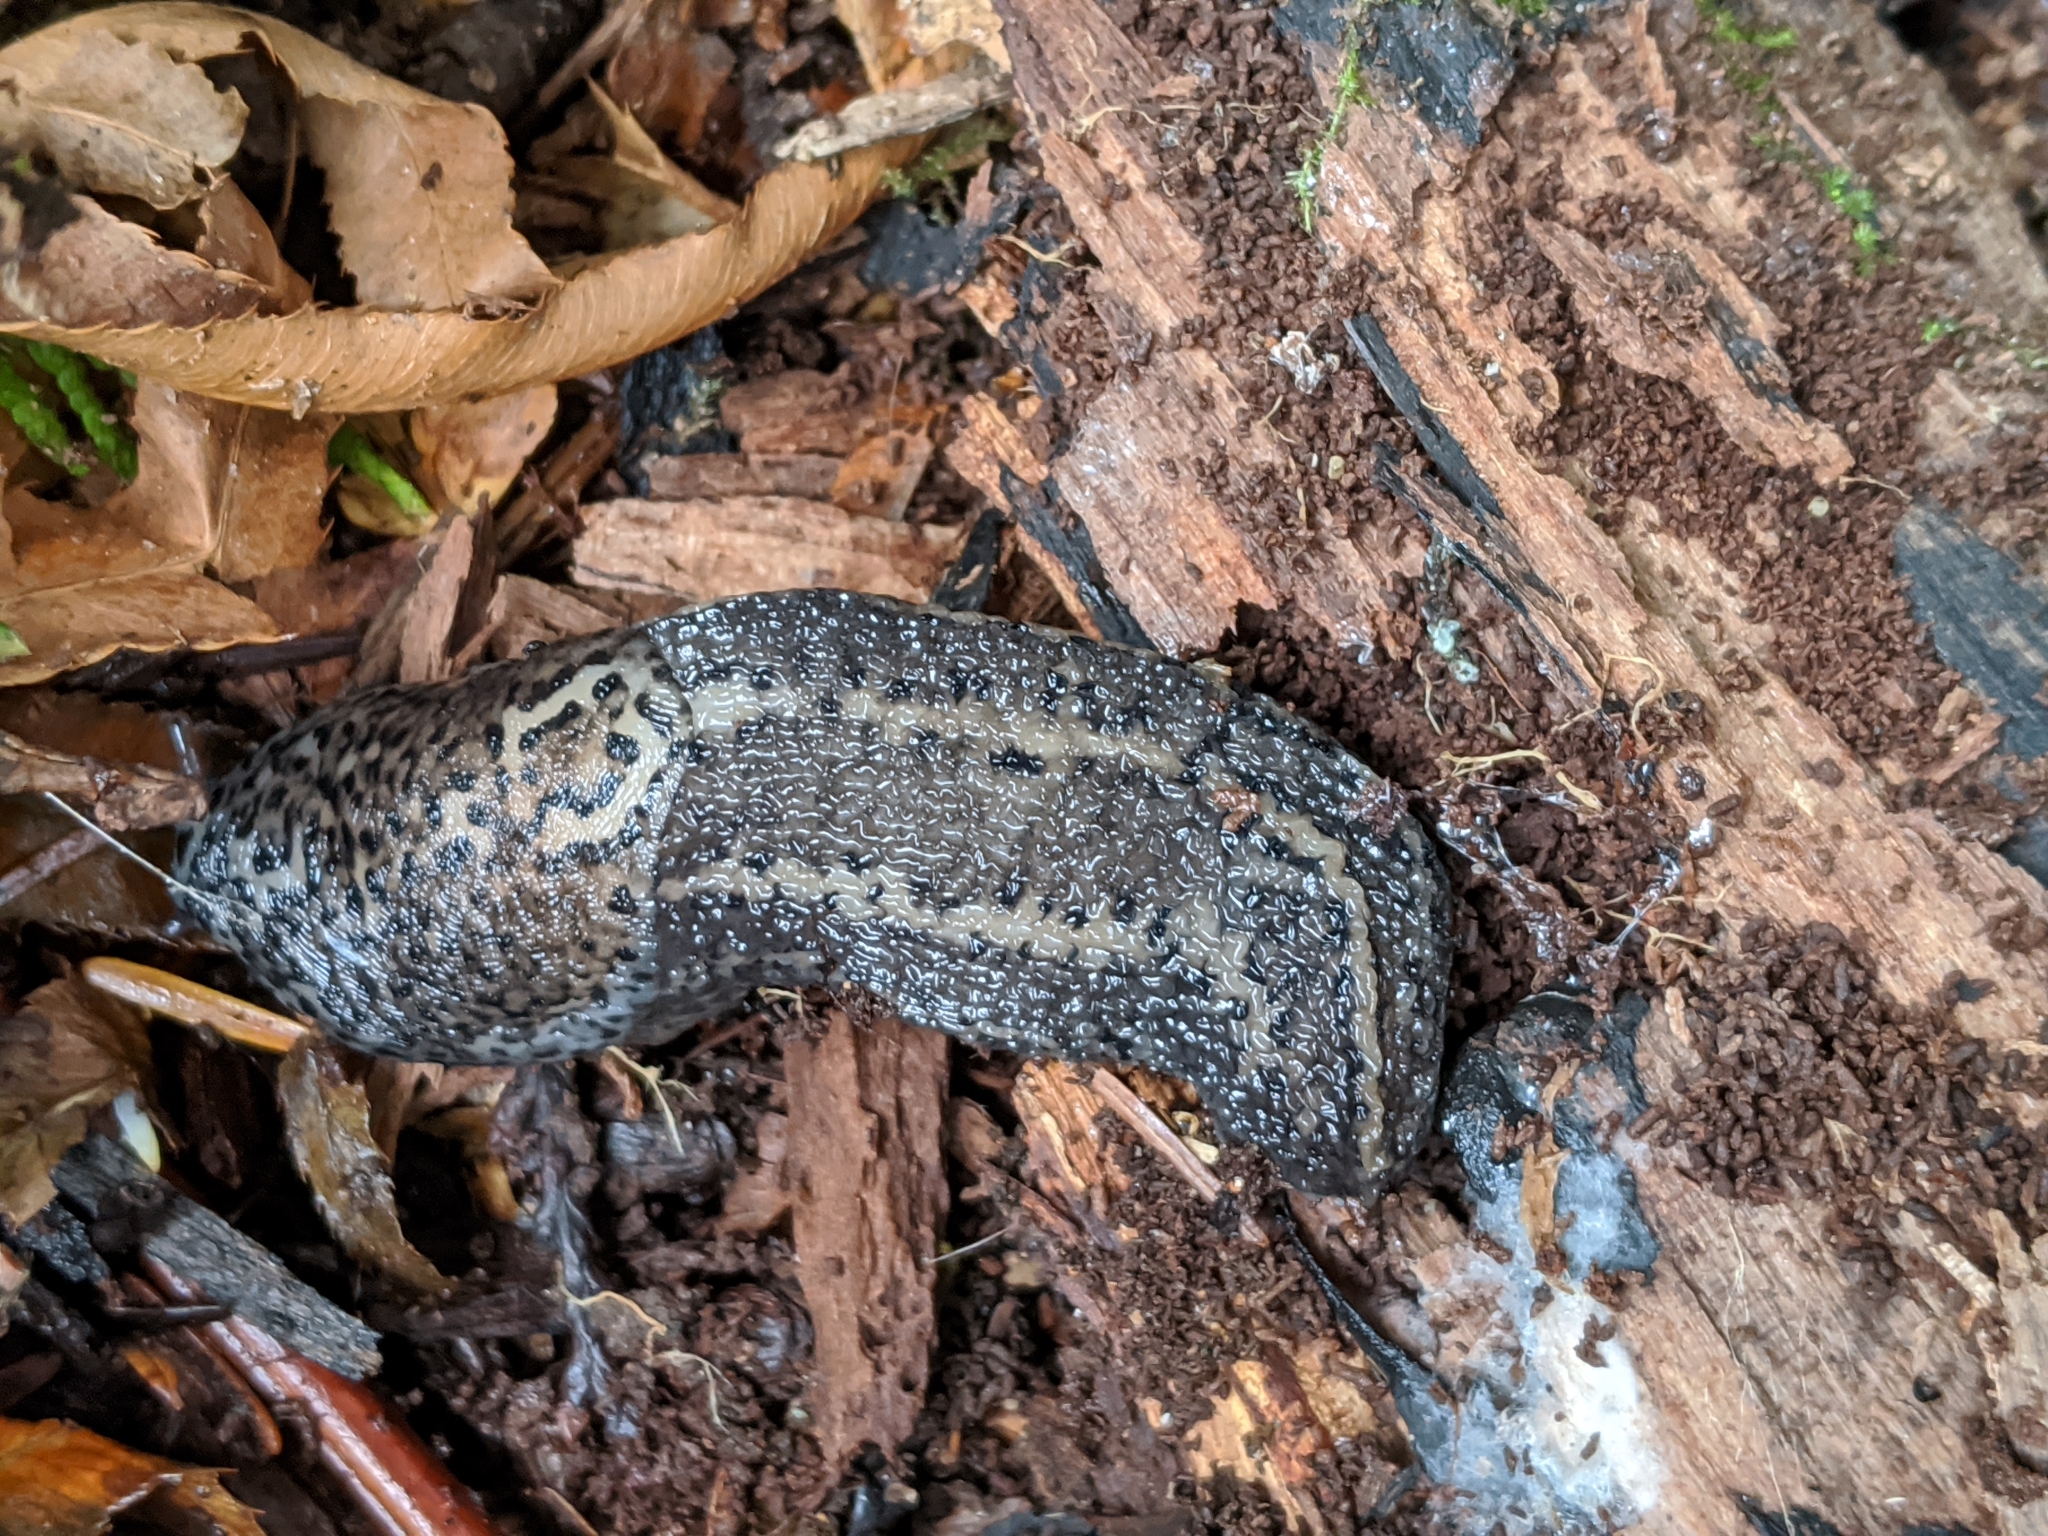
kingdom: Animalia
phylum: Mollusca
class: Gastropoda
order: Stylommatophora
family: Limacidae
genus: Limax
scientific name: Limax maximus
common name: Great grey slug
